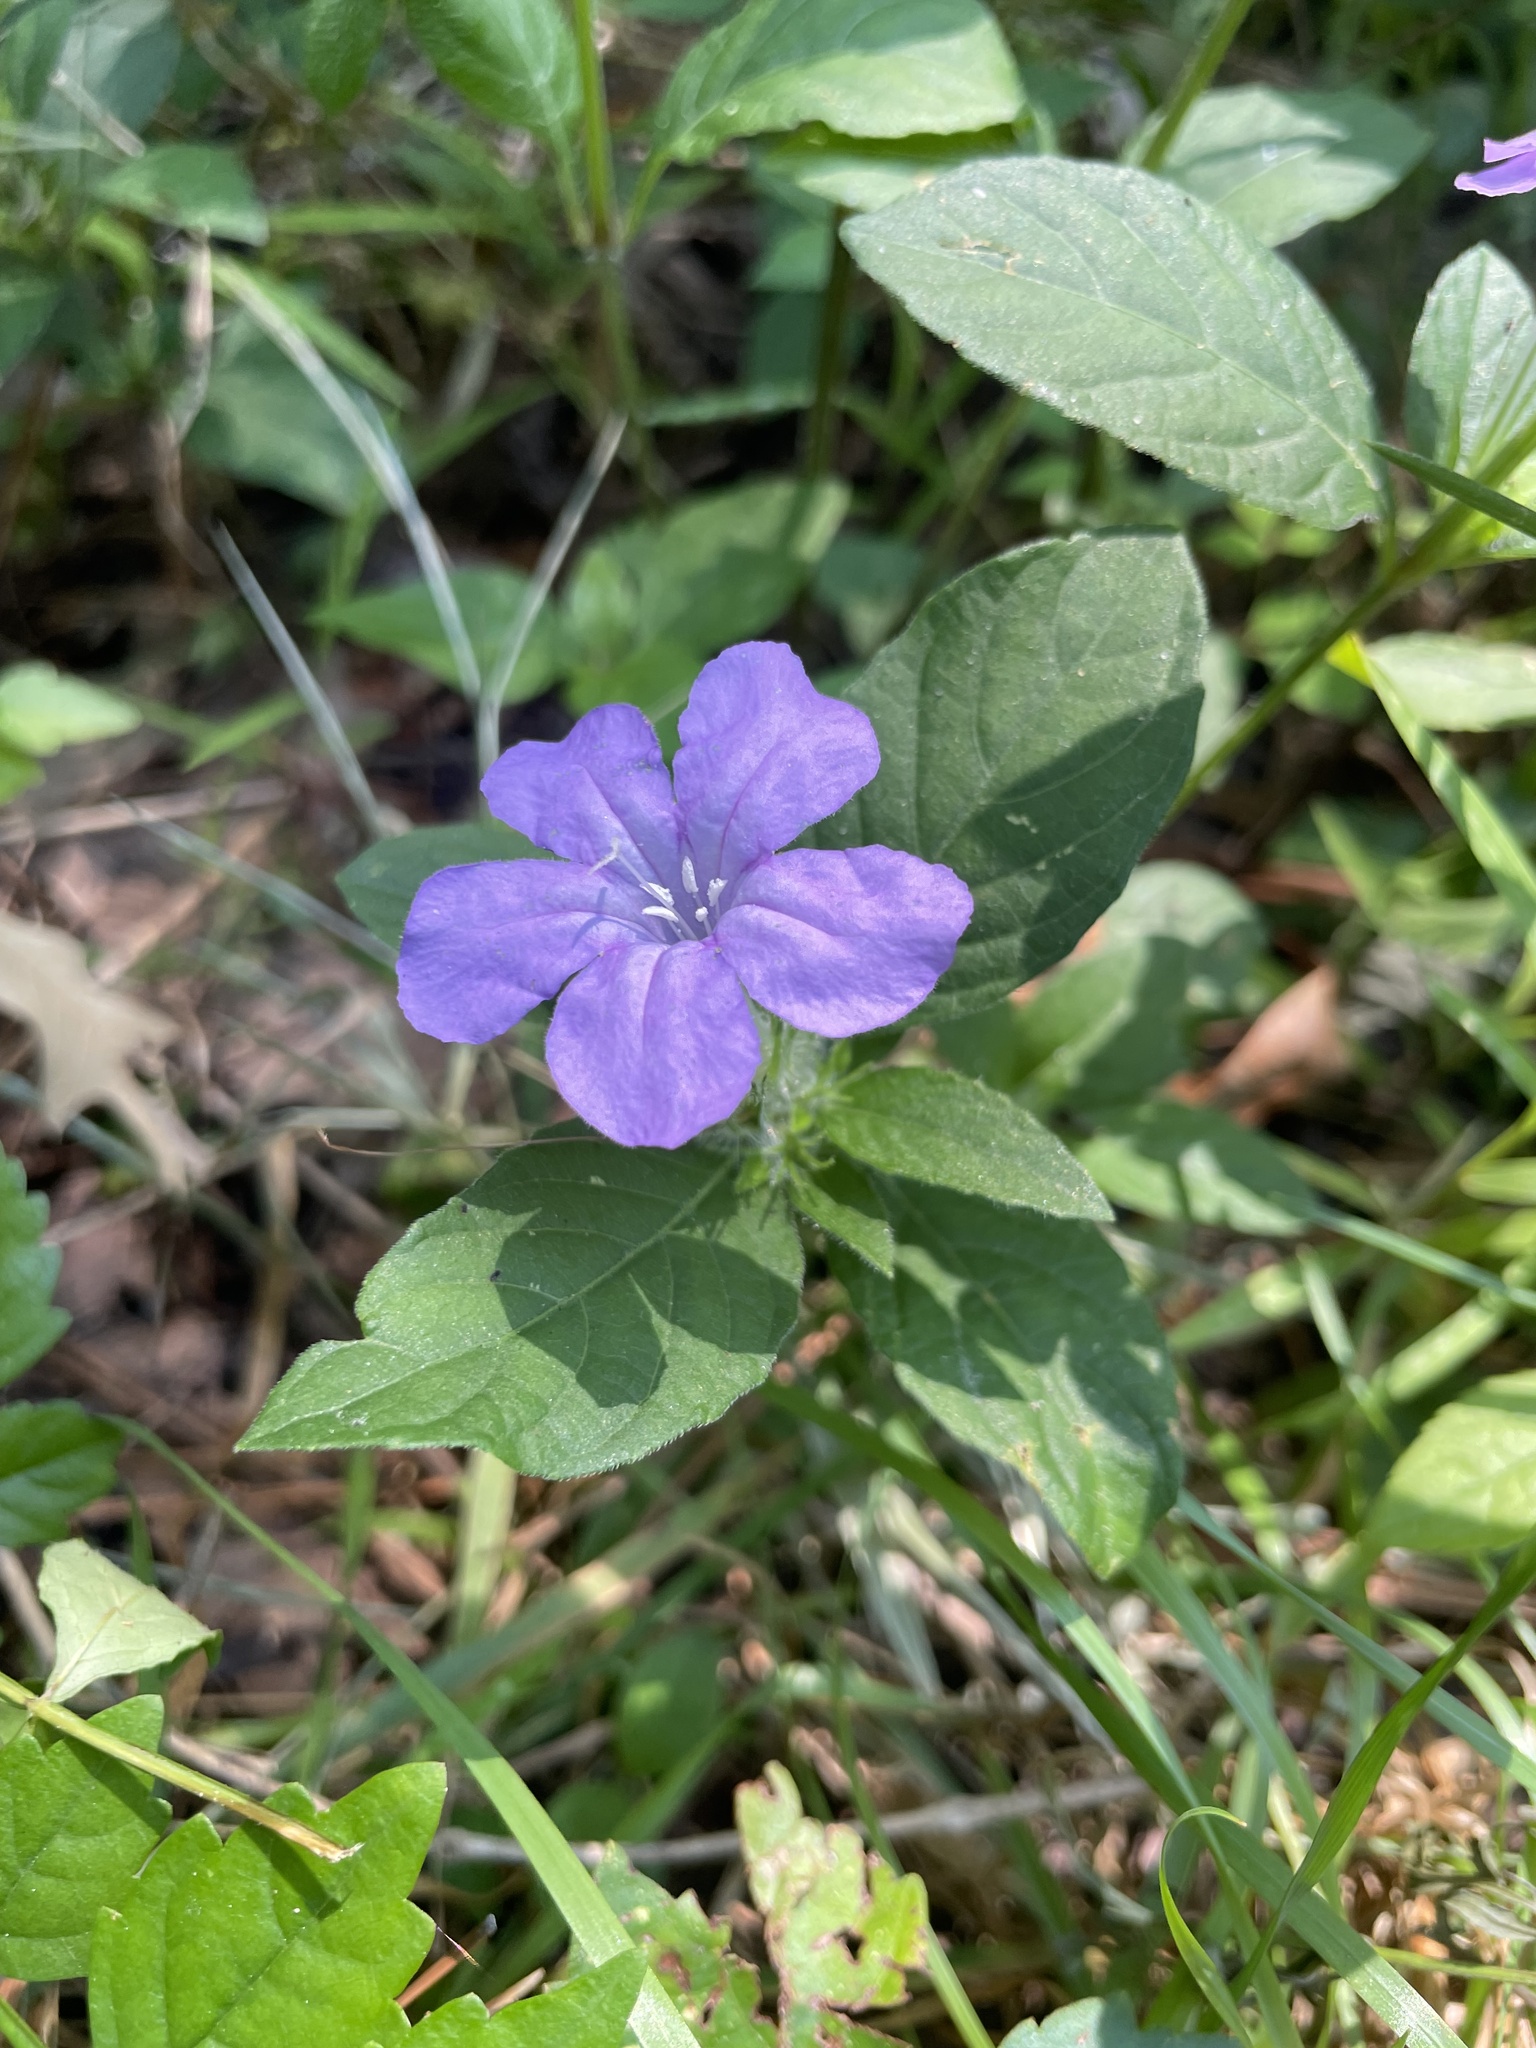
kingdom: Plantae
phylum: Tracheophyta
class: Magnoliopsida
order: Lamiales
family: Acanthaceae
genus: Ruellia
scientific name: Ruellia caroliniensis
